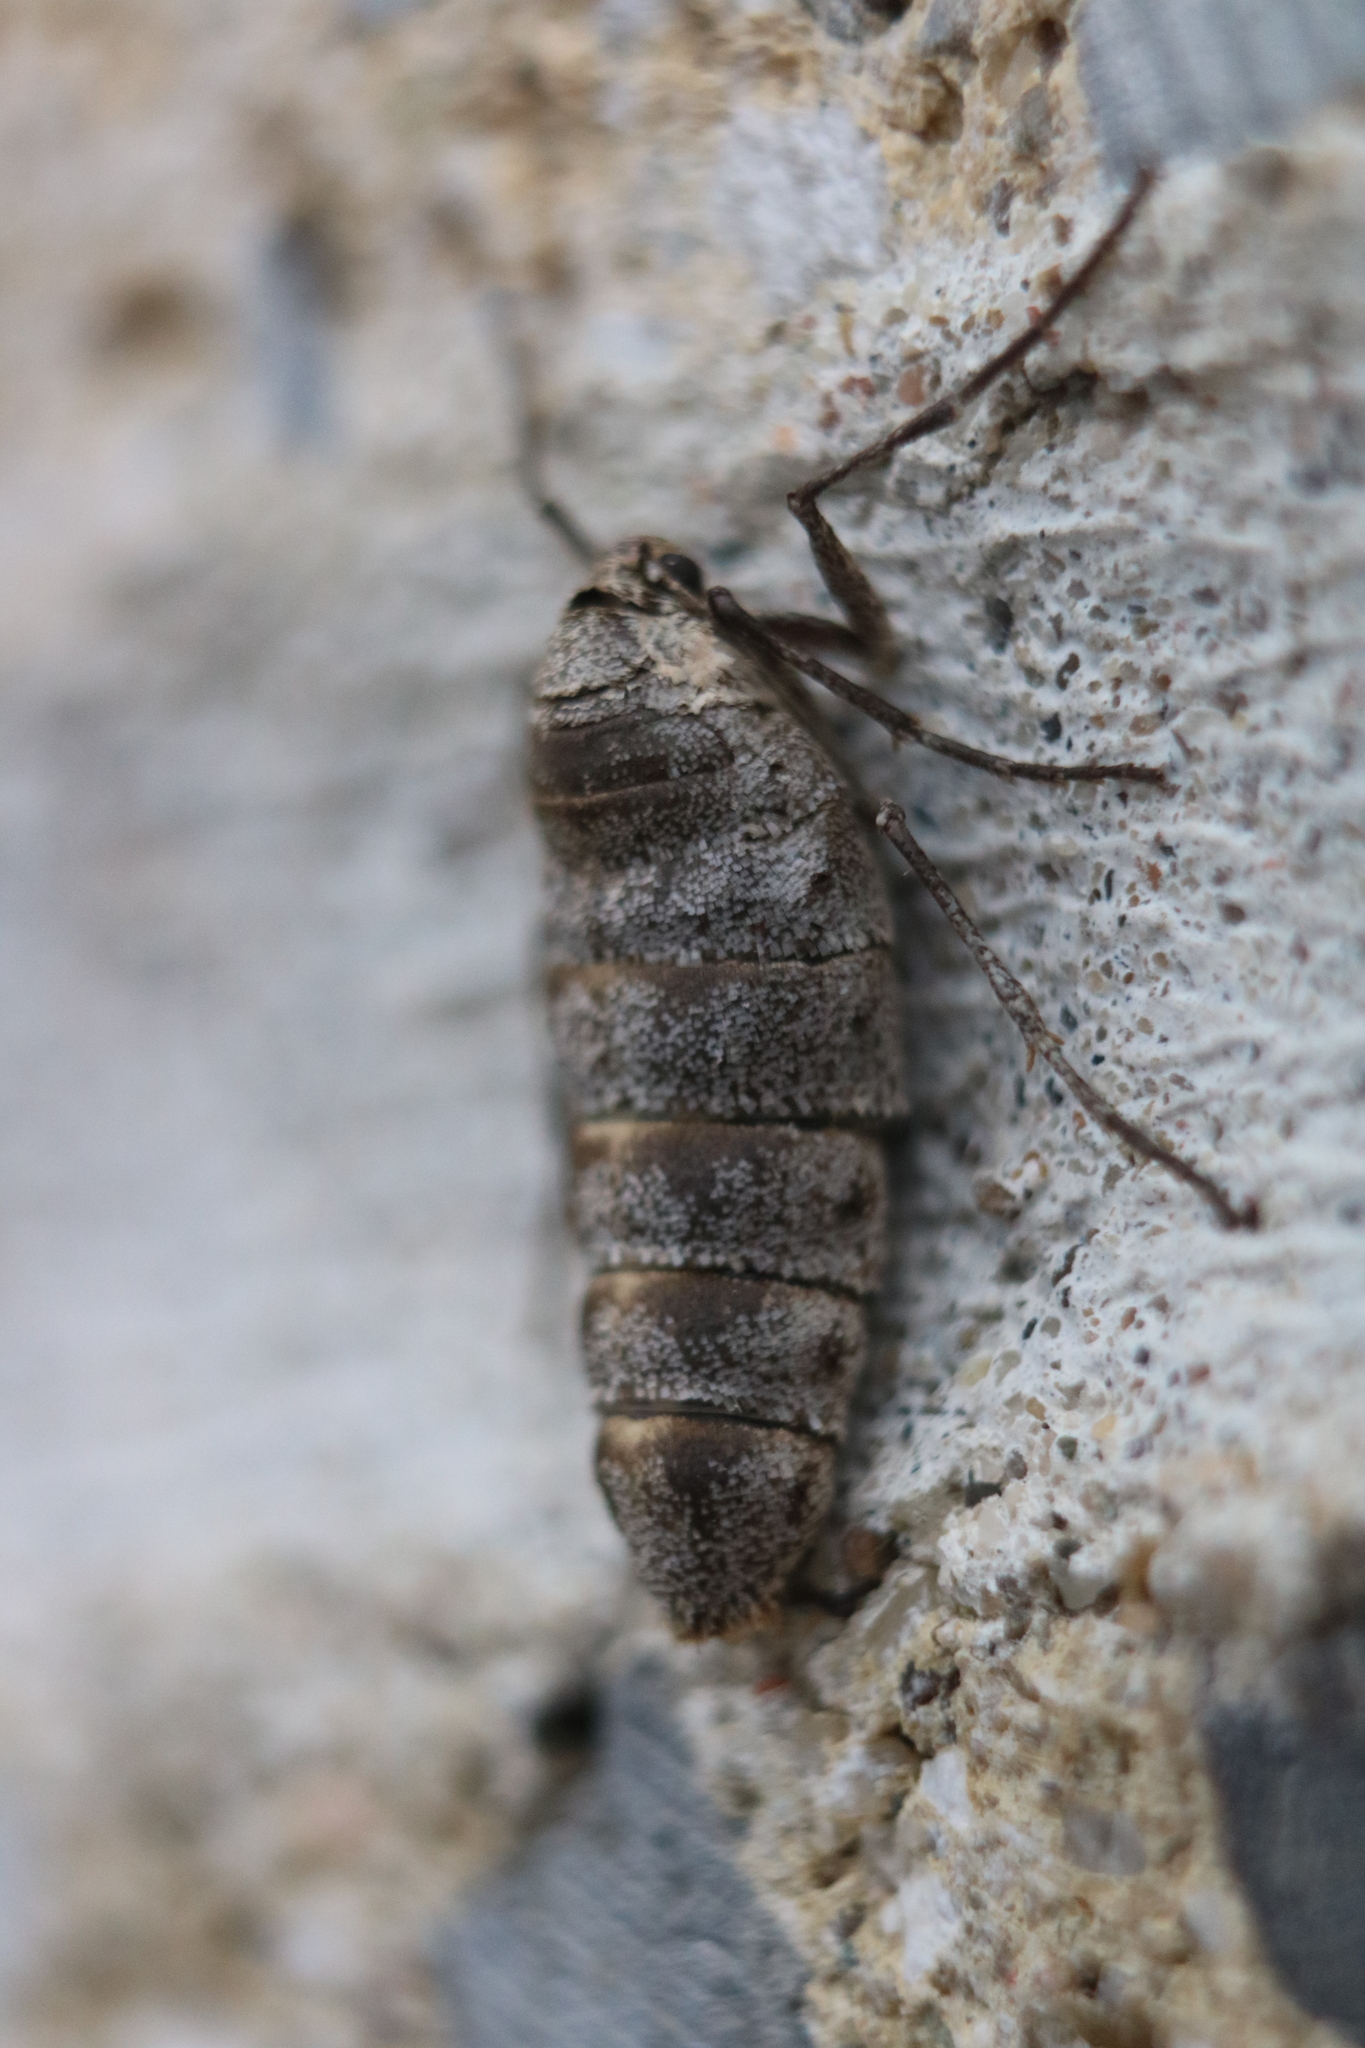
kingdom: Animalia
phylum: Arthropoda
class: Insecta
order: Lepidoptera
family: Geometridae
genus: Alsophila
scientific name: Alsophila pometaria
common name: Fall cankerworm
